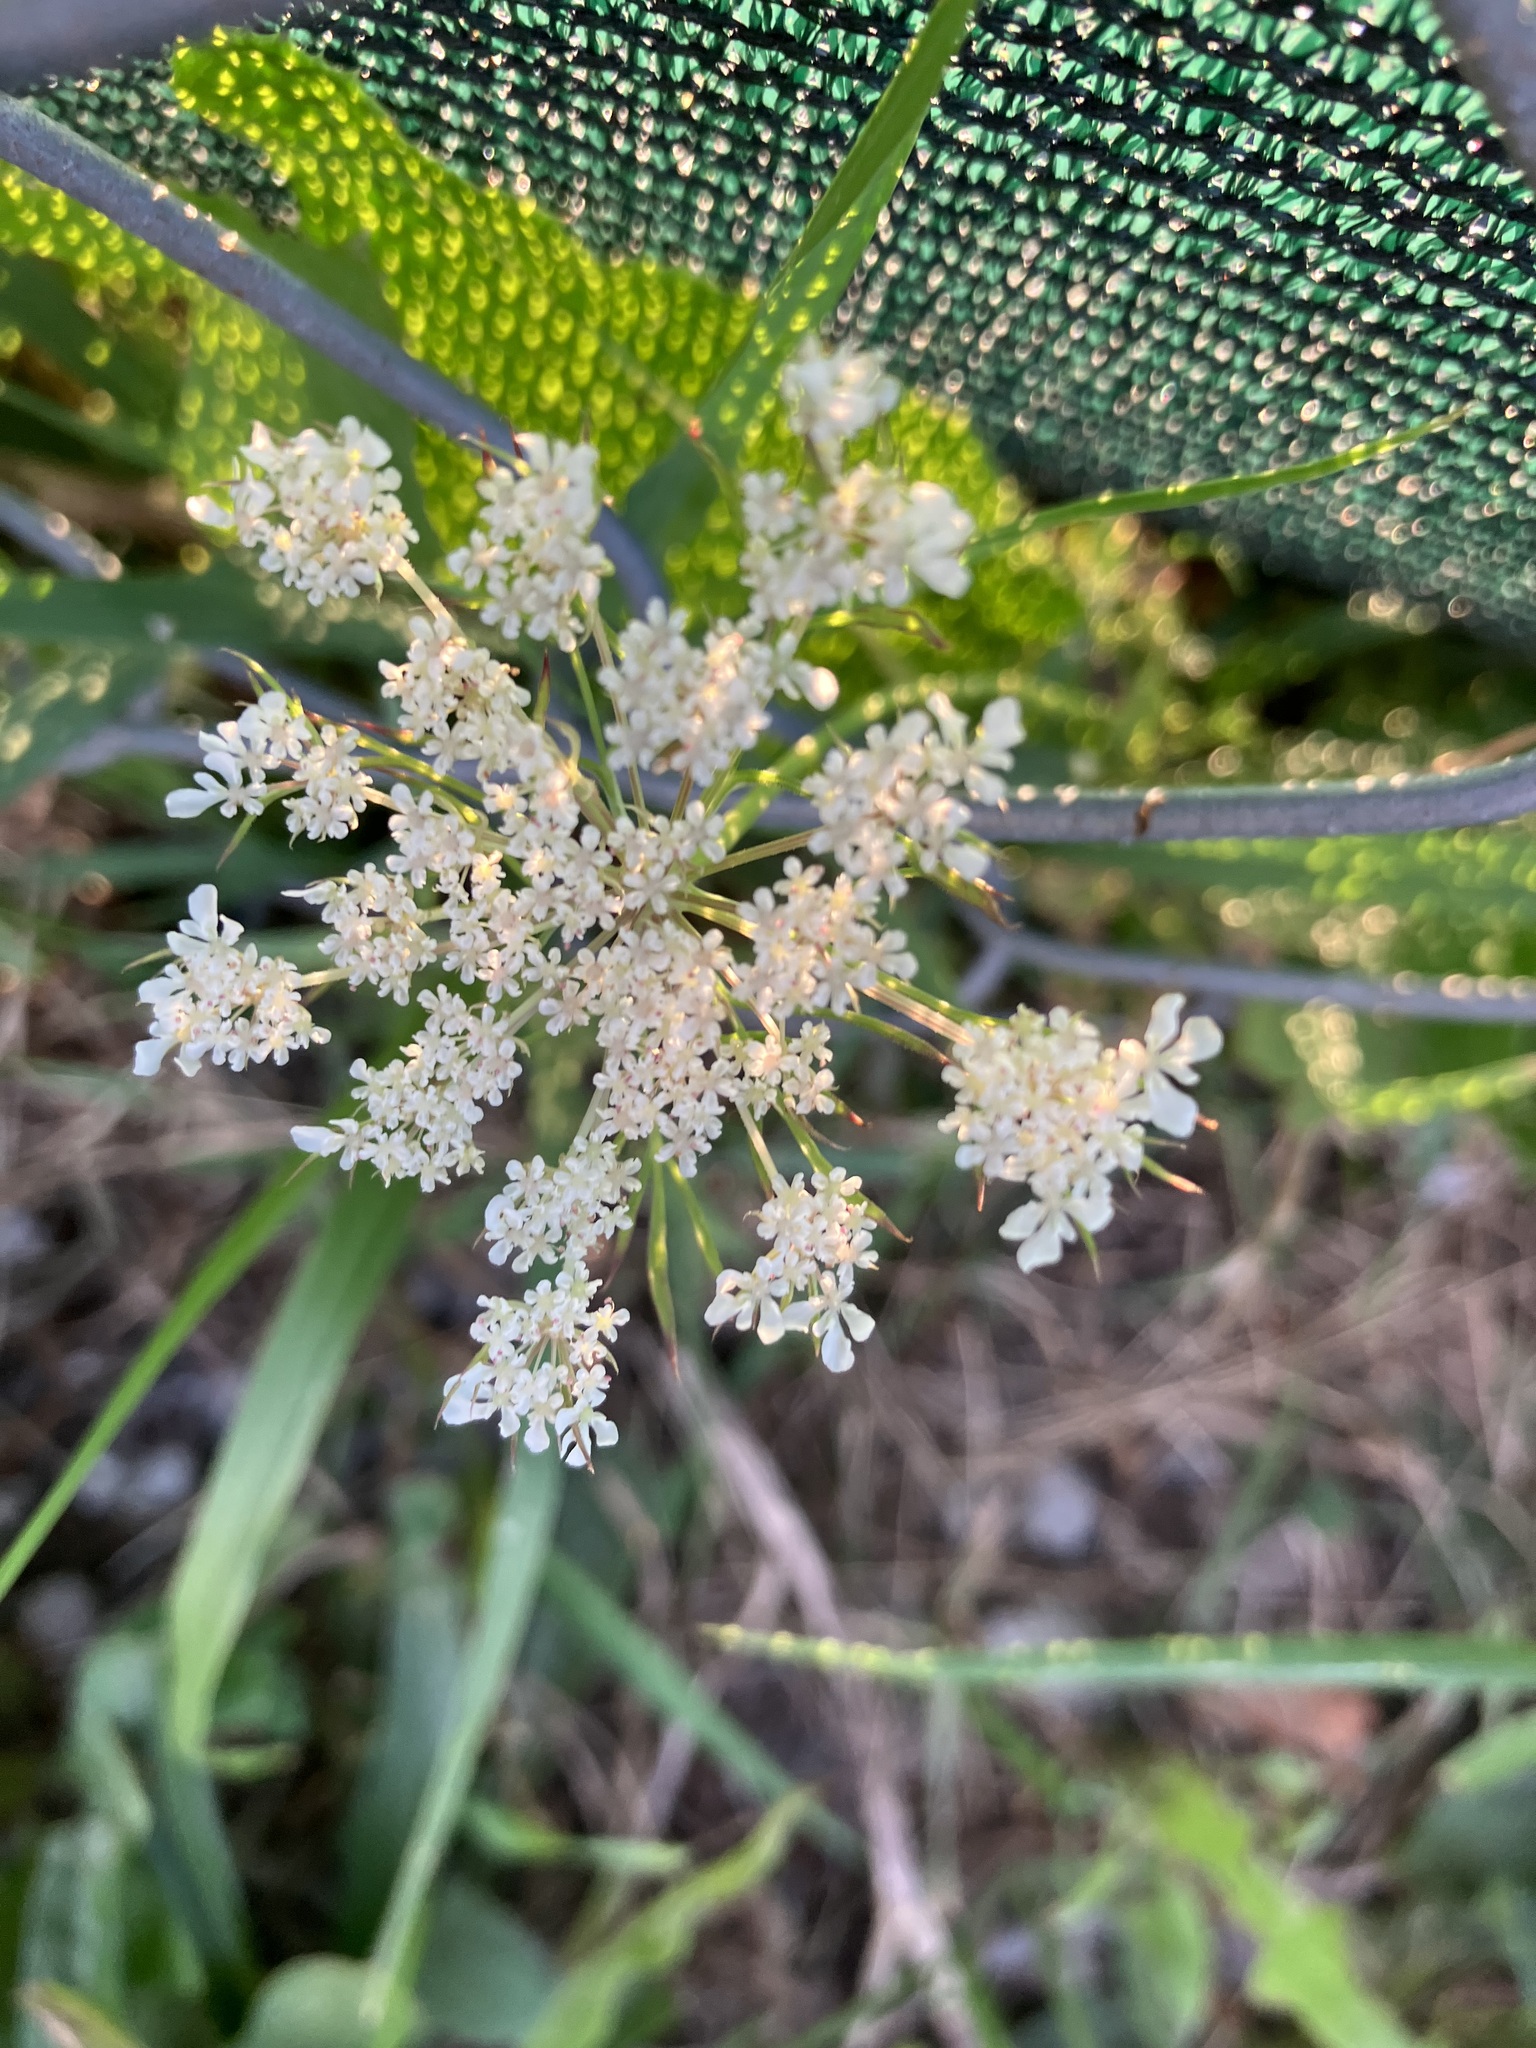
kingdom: Plantae
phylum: Tracheophyta
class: Magnoliopsida
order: Apiales
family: Apiaceae
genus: Daucus
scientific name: Daucus carota
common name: Wild carrot
